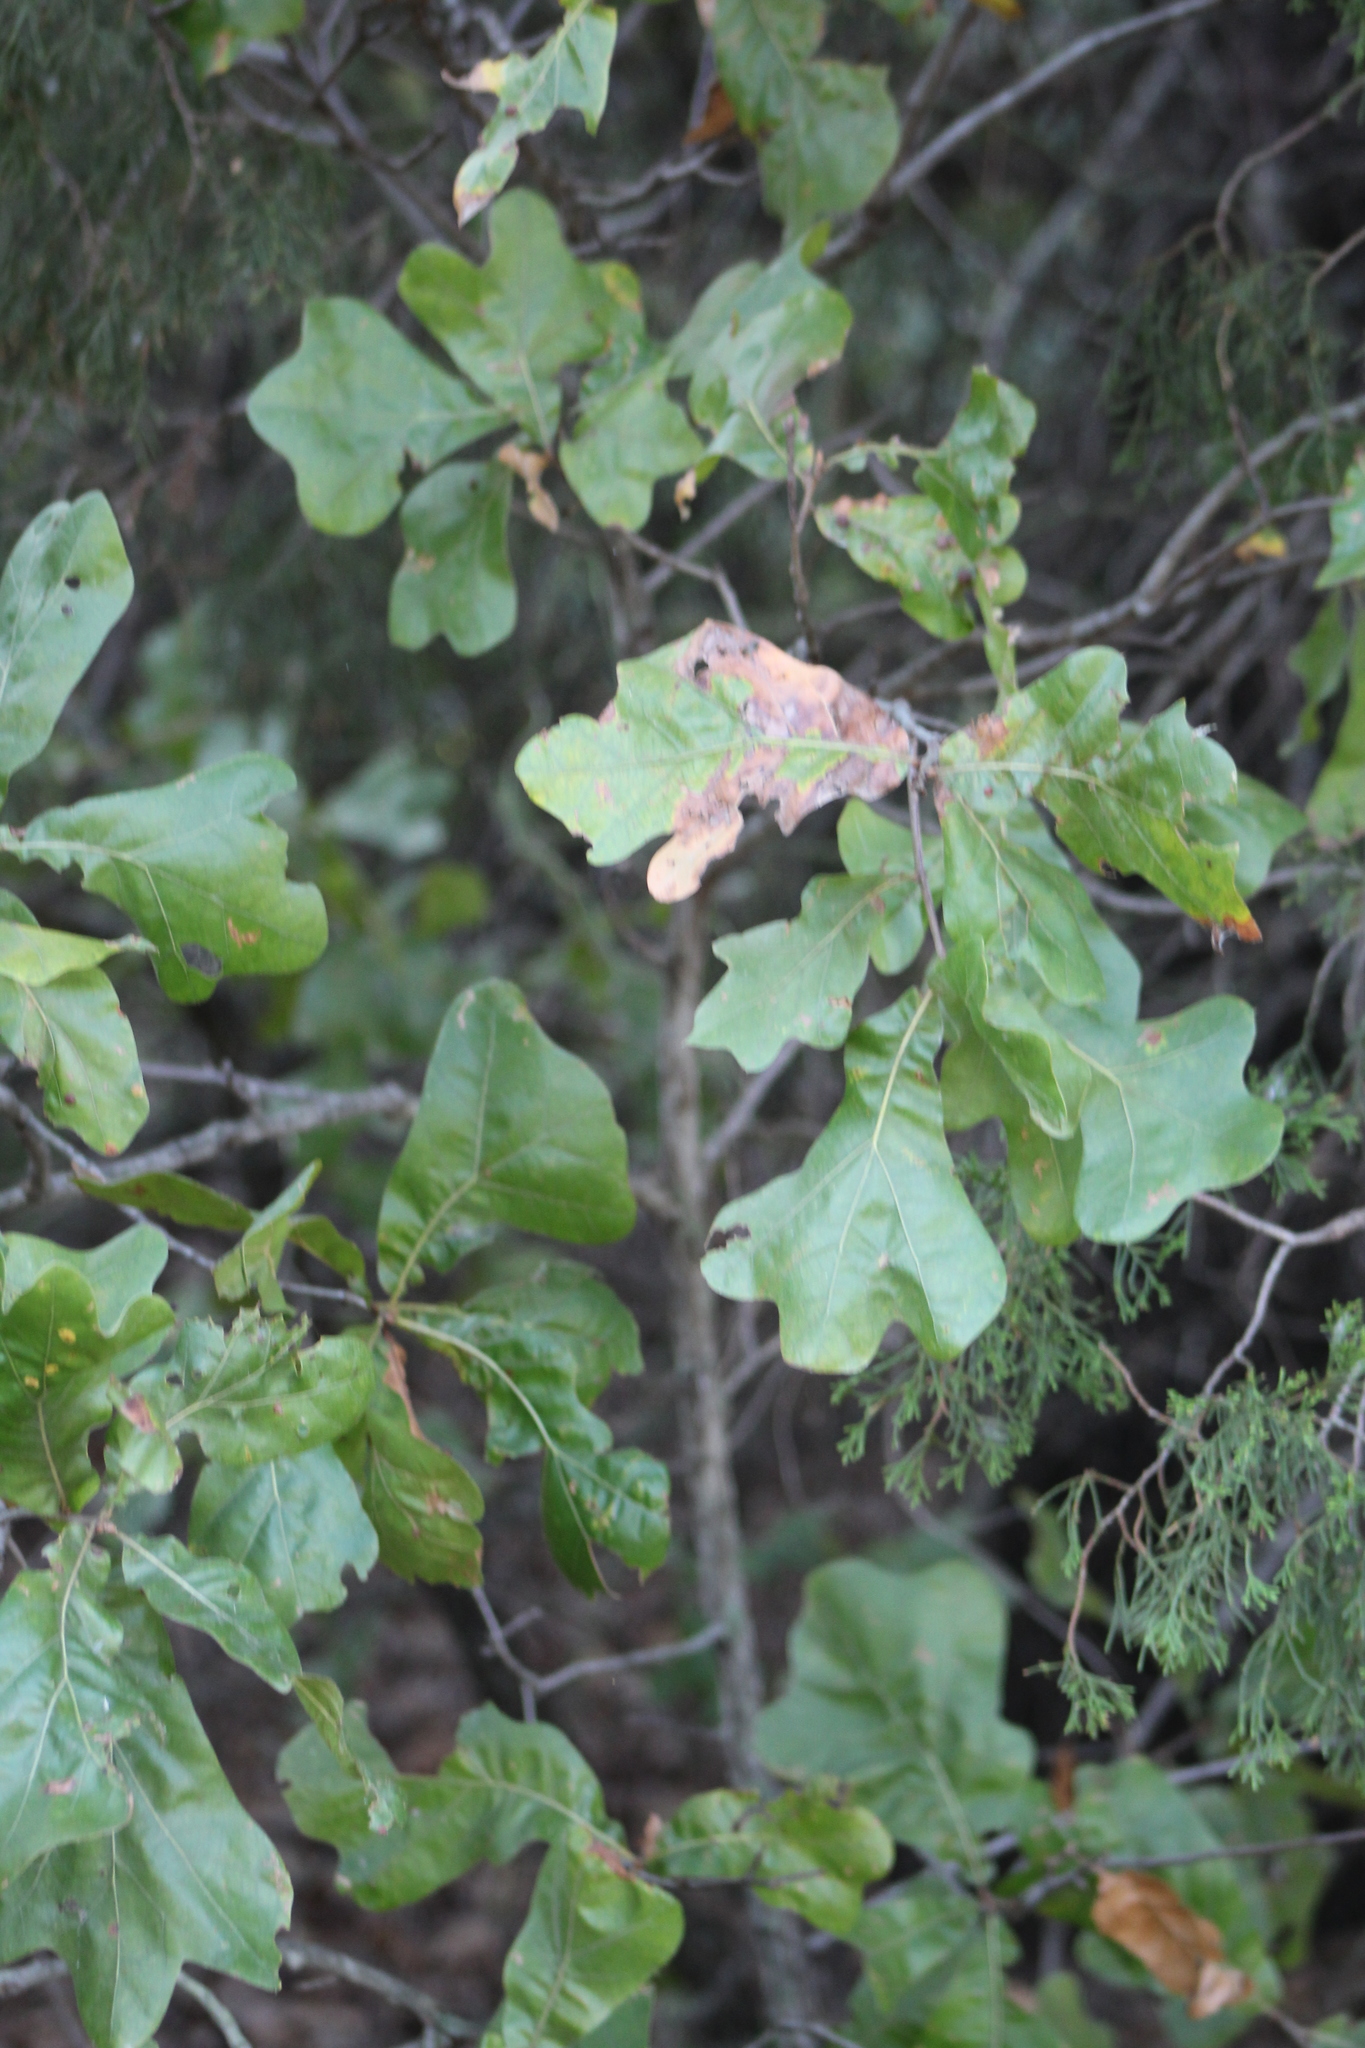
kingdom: Plantae
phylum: Tracheophyta
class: Magnoliopsida
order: Fagales
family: Fagaceae
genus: Quercus
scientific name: Quercus marilandica
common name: Blackjack oak
